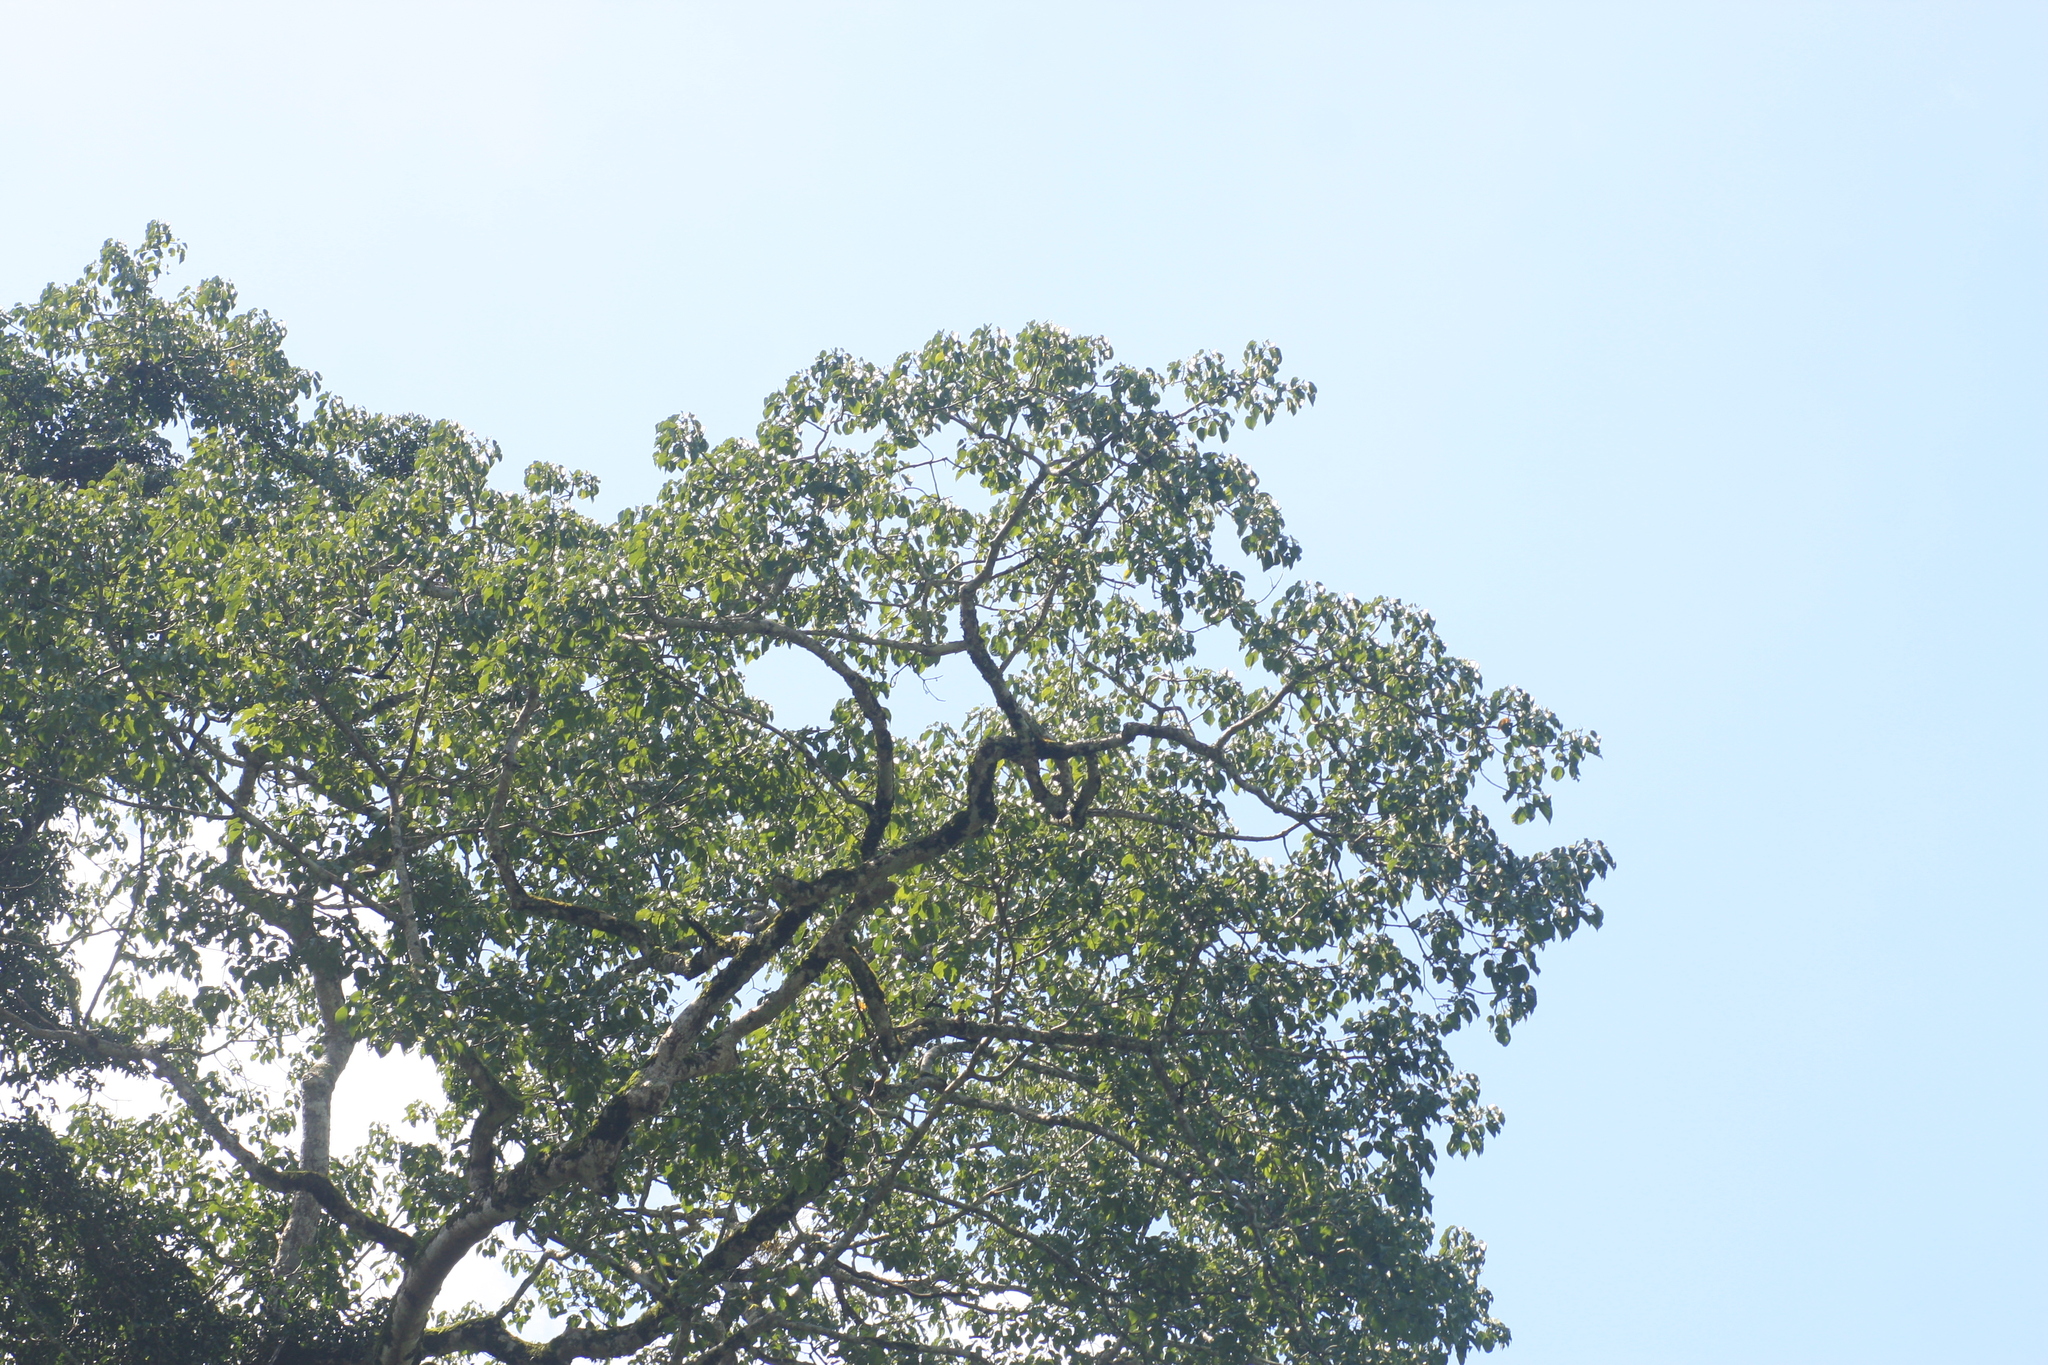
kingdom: Plantae
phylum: Tracheophyta
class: Magnoliopsida
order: Cucurbitales
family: Tetramelaceae
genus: Tetrameles
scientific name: Tetrameles nudiflora
